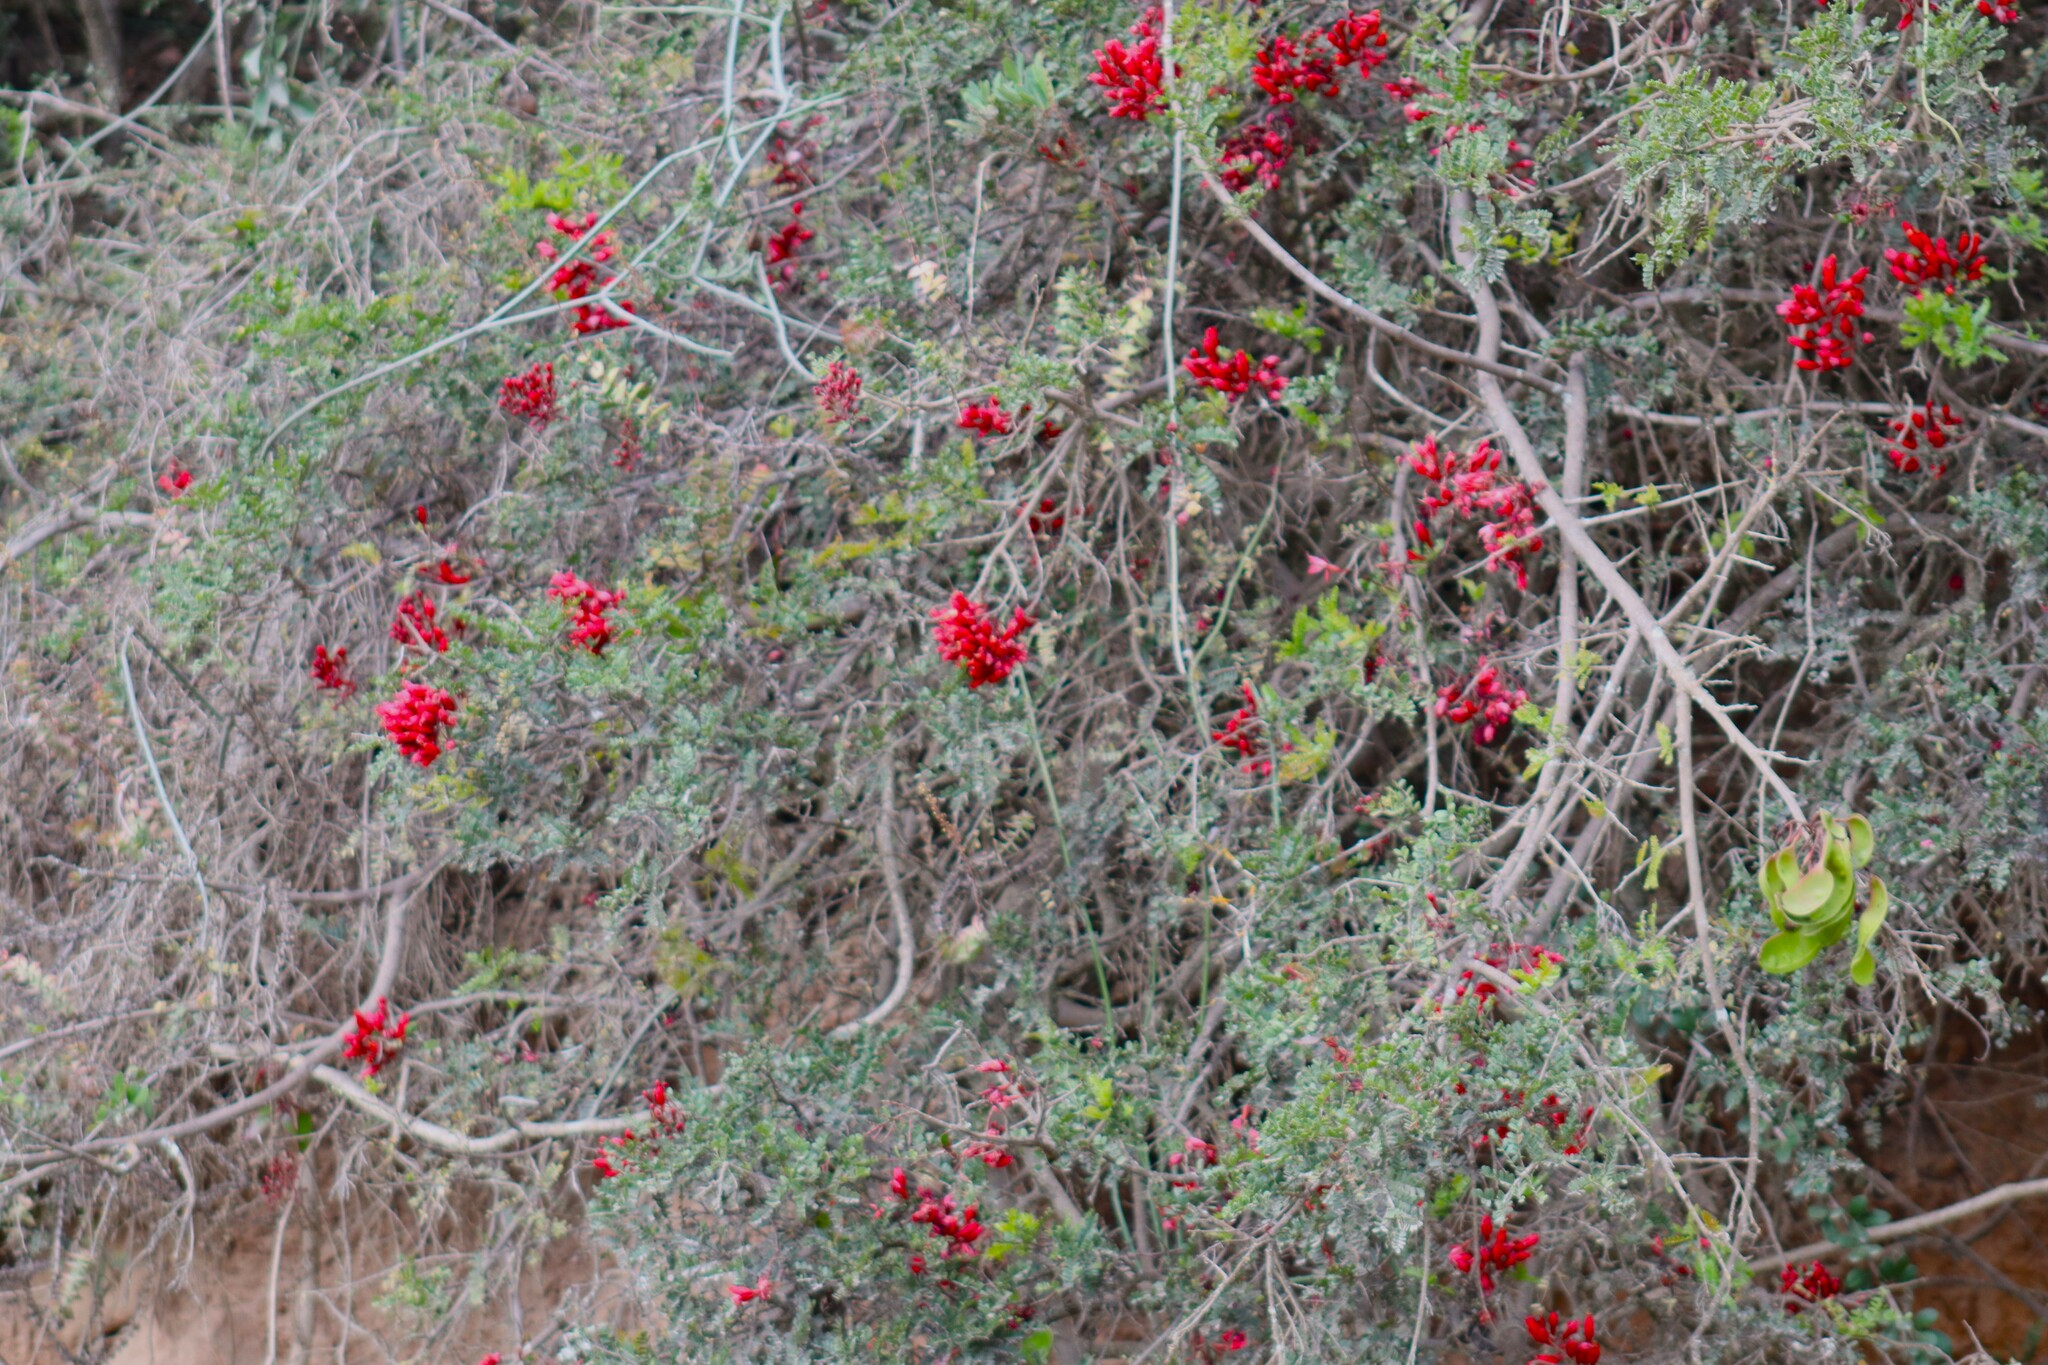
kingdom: Plantae
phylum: Tracheophyta
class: Magnoliopsida
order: Fabales
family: Fabaceae
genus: Schotia
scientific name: Schotia afra
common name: Hottentot's bean
